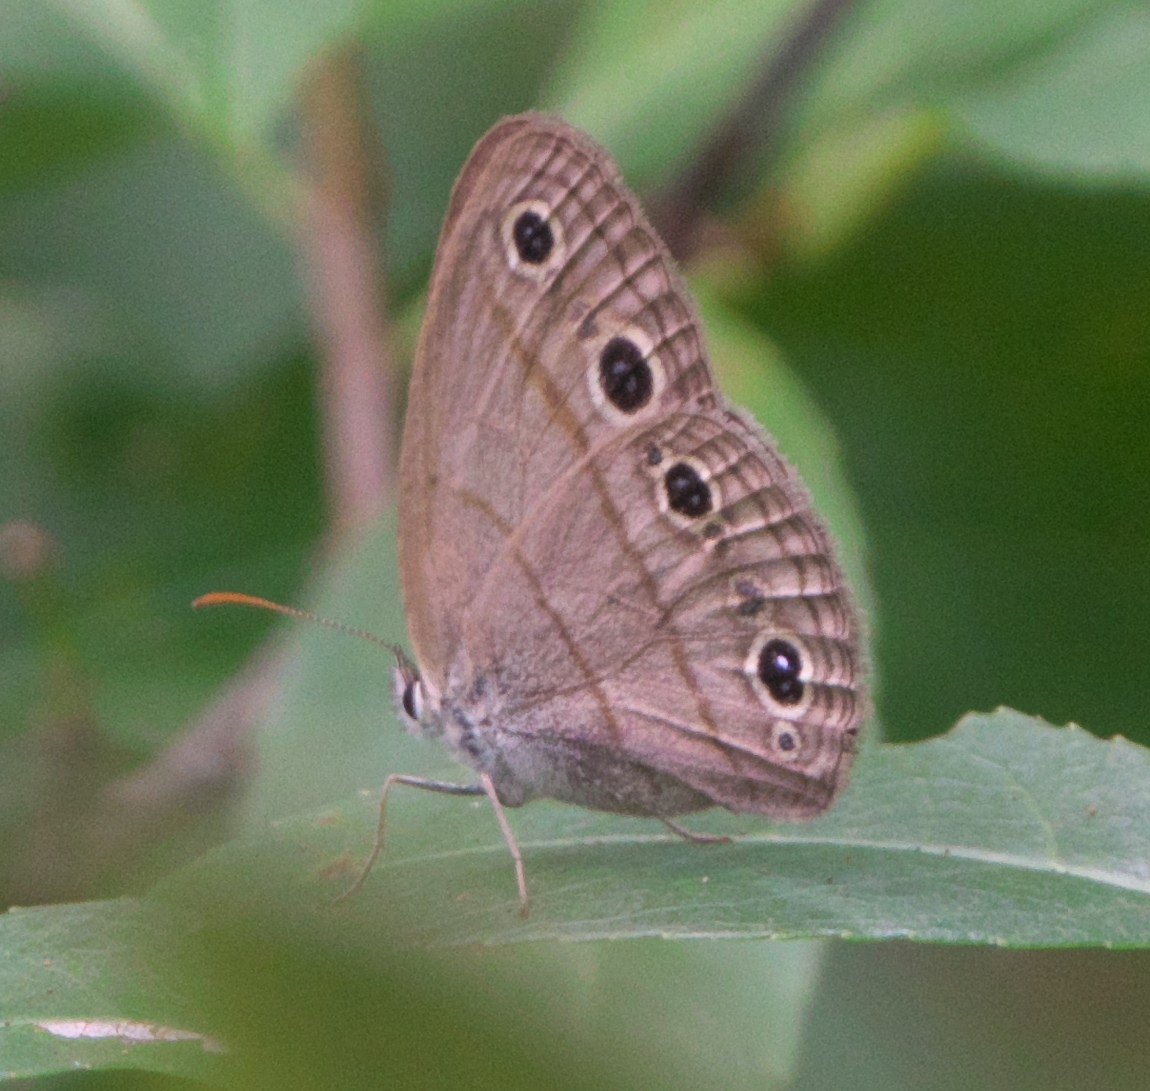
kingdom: Animalia
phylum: Arthropoda
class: Insecta
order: Lepidoptera
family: Nymphalidae
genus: Euptychia
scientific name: Euptychia cymela
